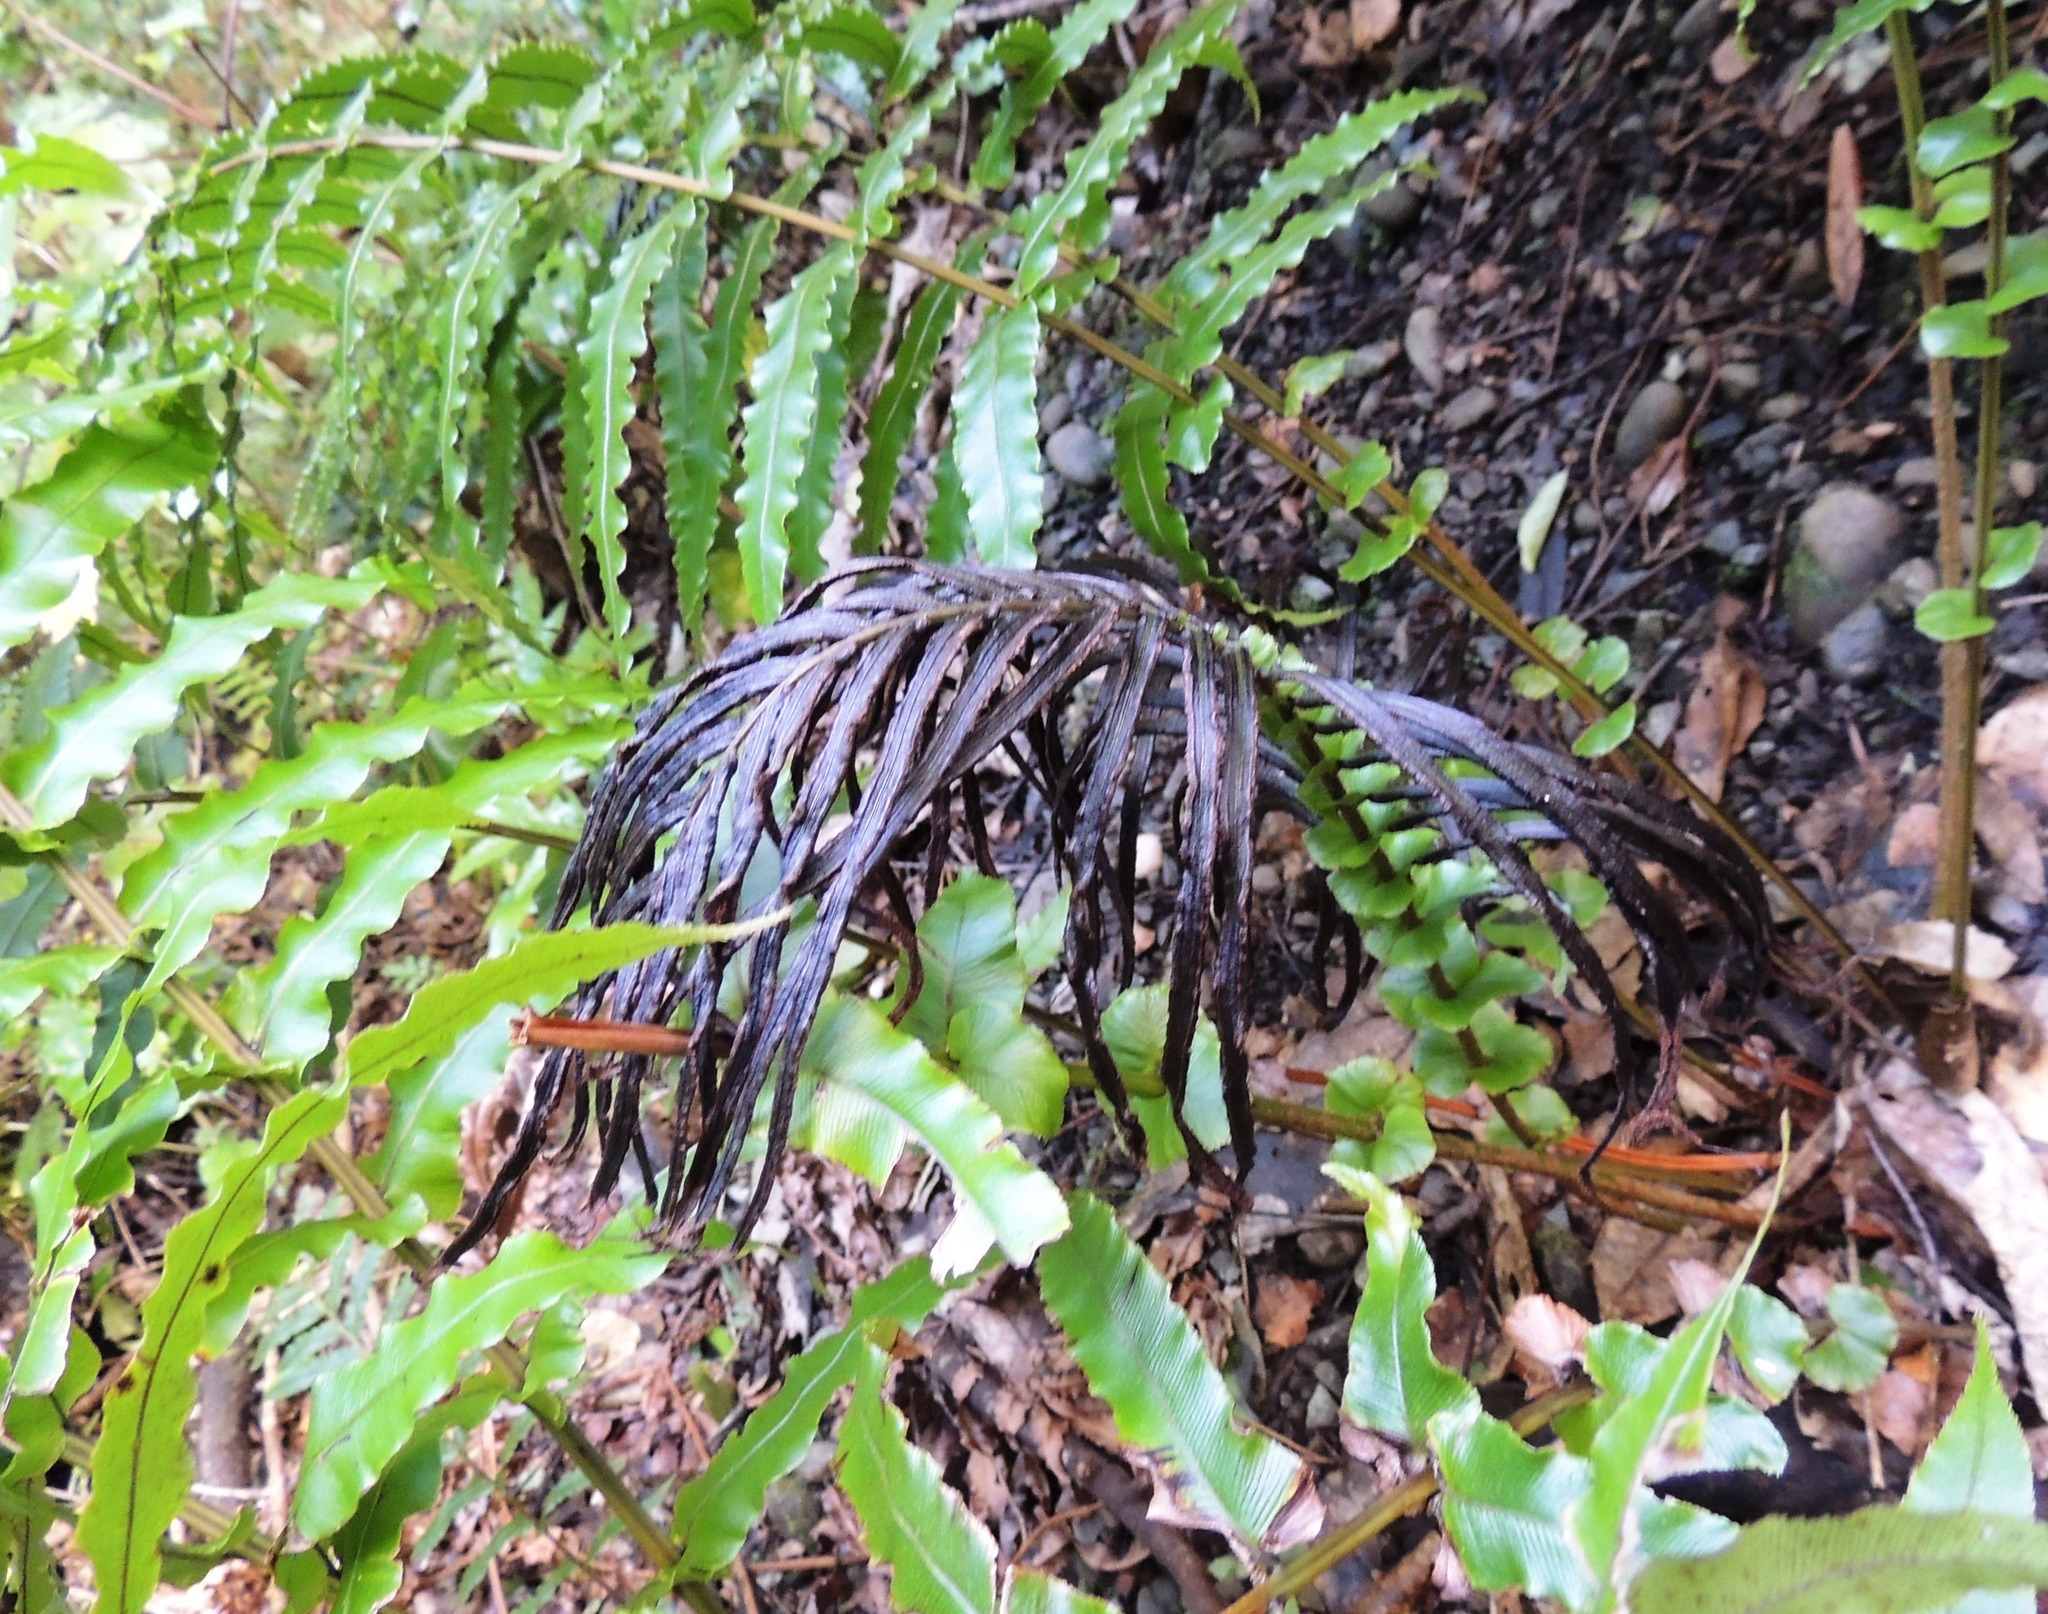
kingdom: Plantae
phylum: Tracheophyta
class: Polypodiopsida
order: Polypodiales
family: Blechnaceae
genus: Parablechnum
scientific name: Parablechnum novae-zelandiae
